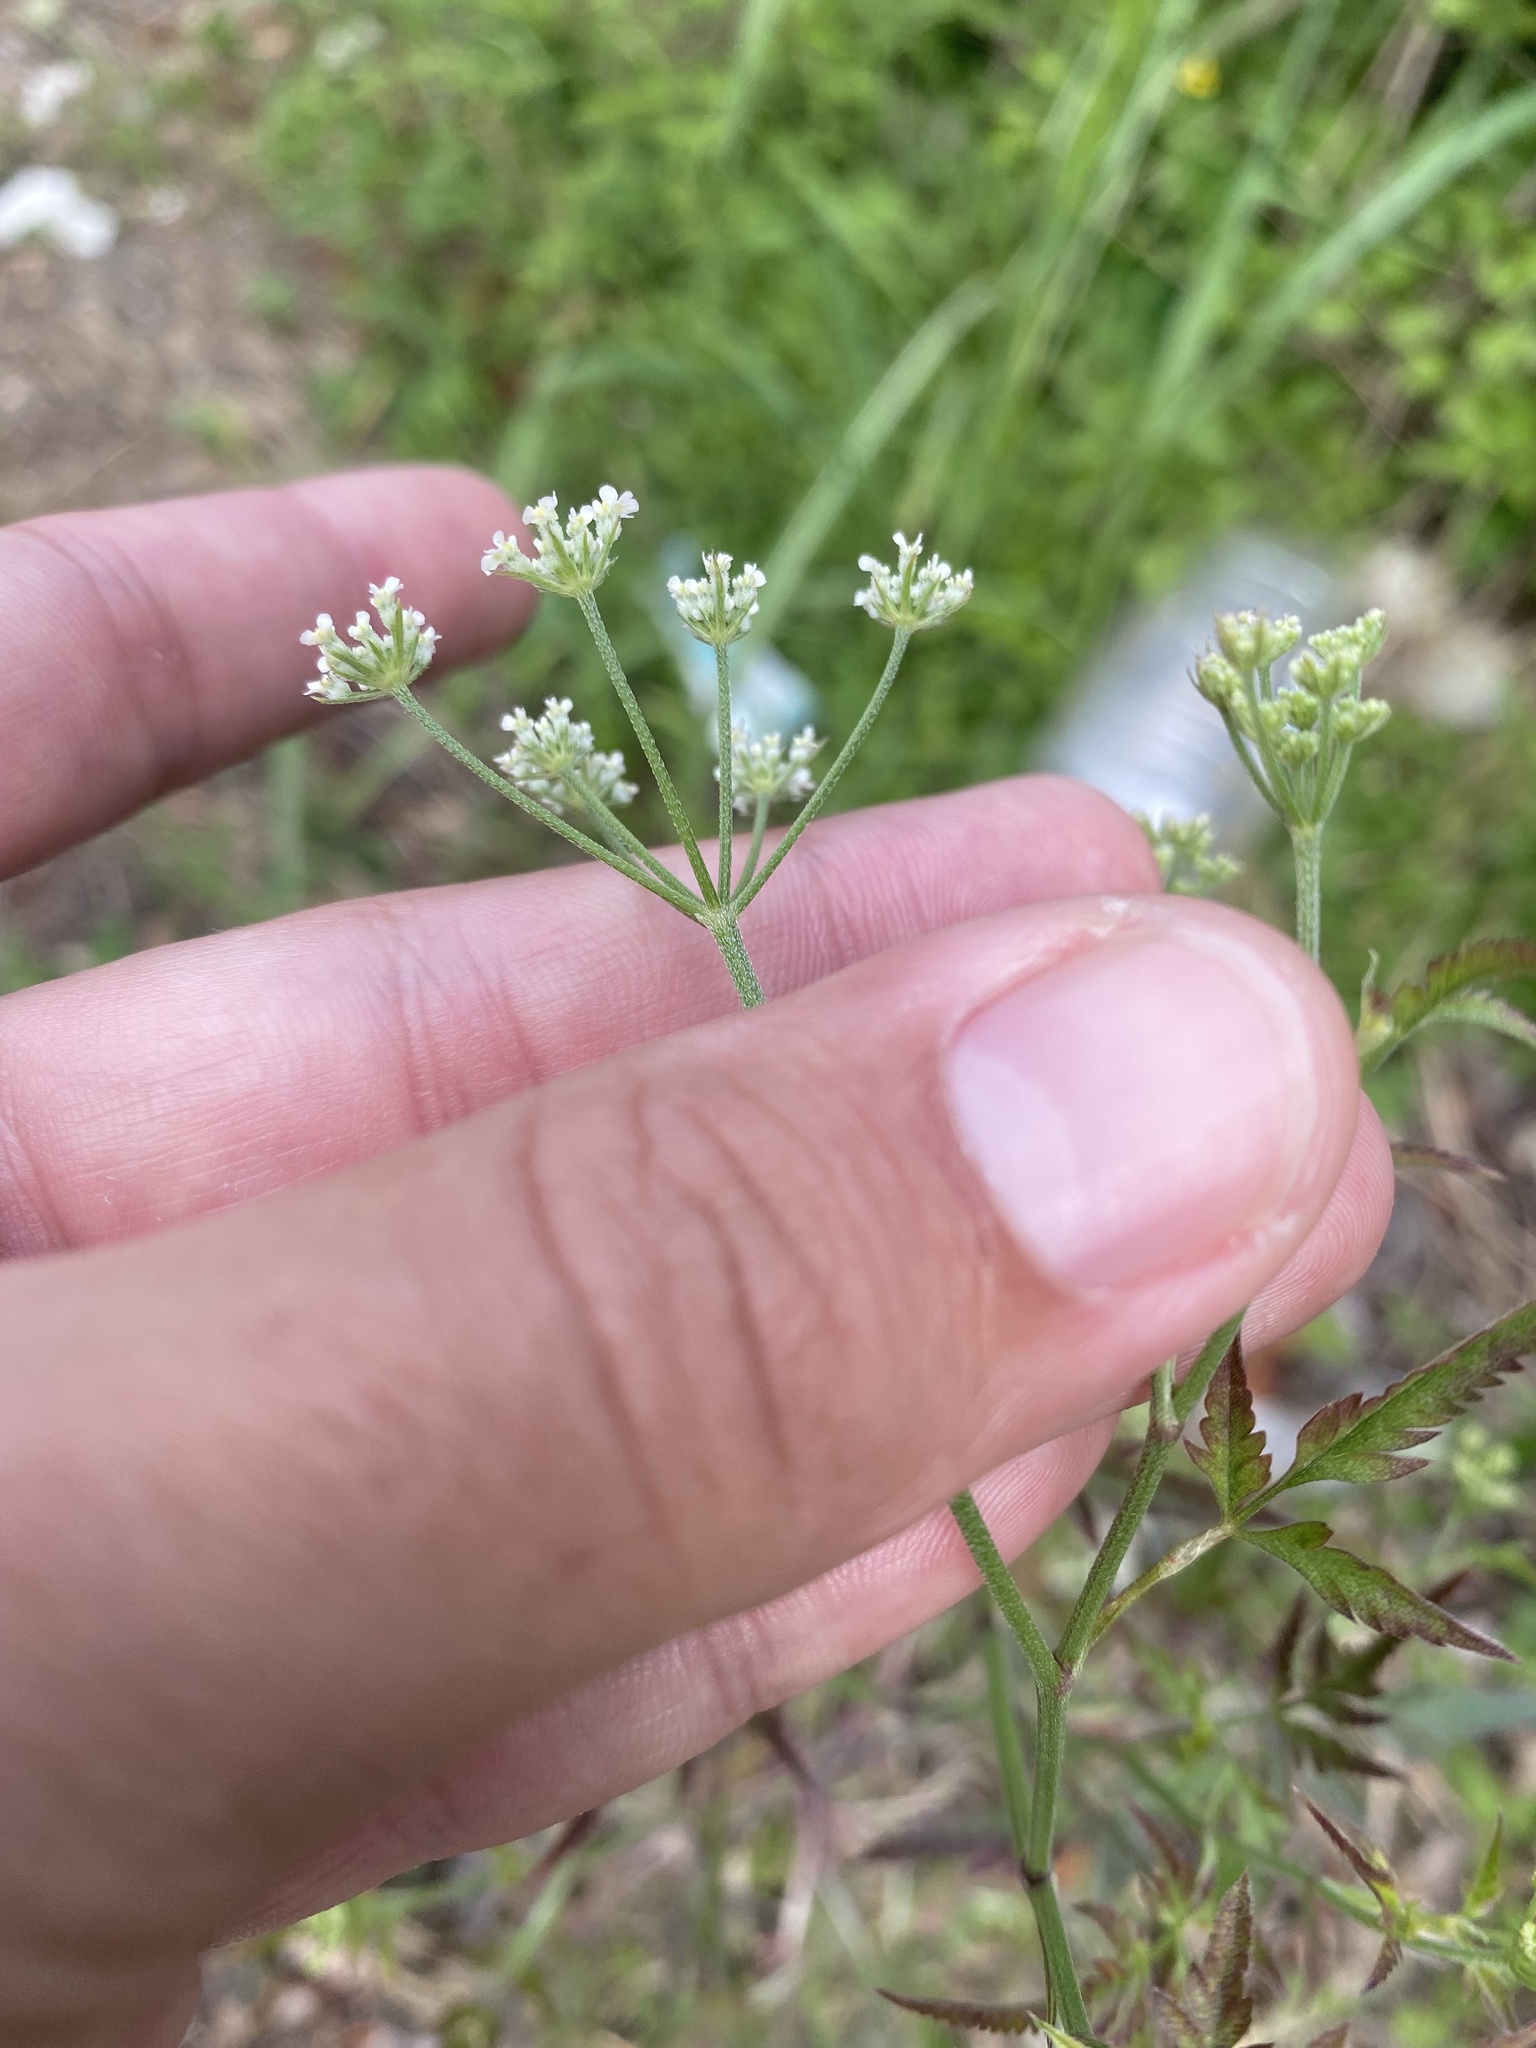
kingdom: Plantae
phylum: Tracheophyta
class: Magnoliopsida
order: Apiales
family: Apiaceae
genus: Torilis
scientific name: Torilis arvensis
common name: Spreading hedge-parsley
